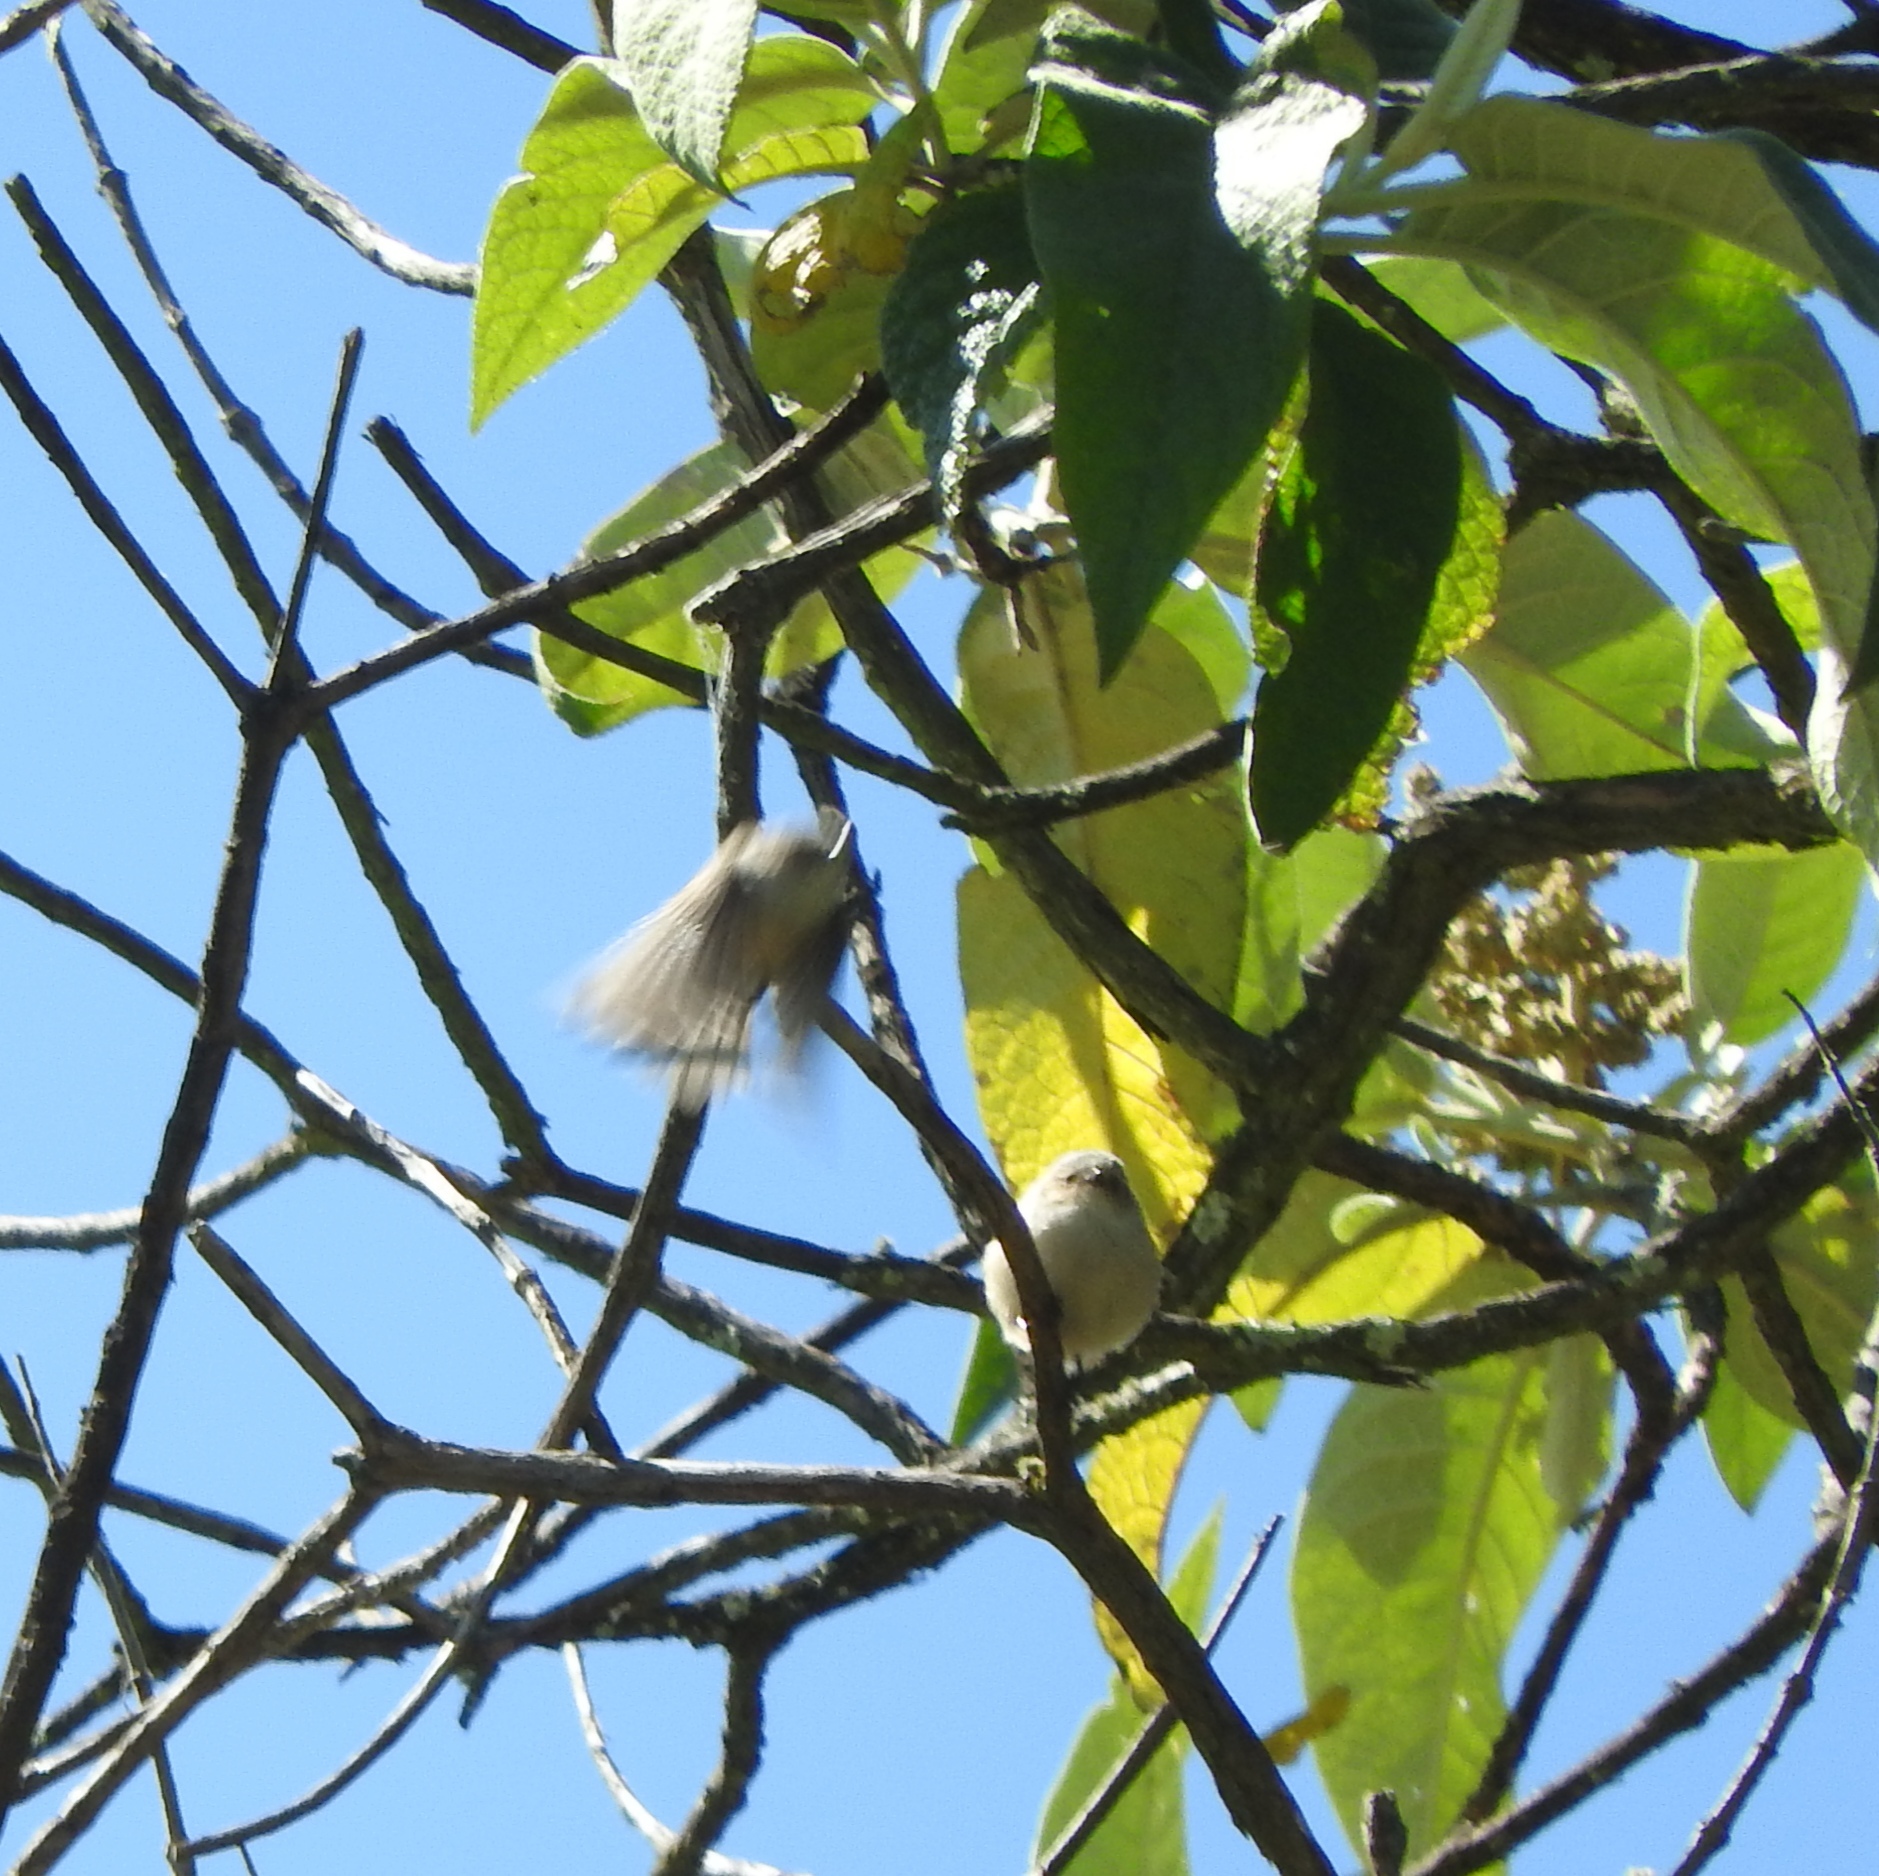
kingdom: Animalia
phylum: Chordata
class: Aves
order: Passeriformes
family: Aegithalidae
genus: Psaltriparus
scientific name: Psaltriparus minimus
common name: American bushtit
